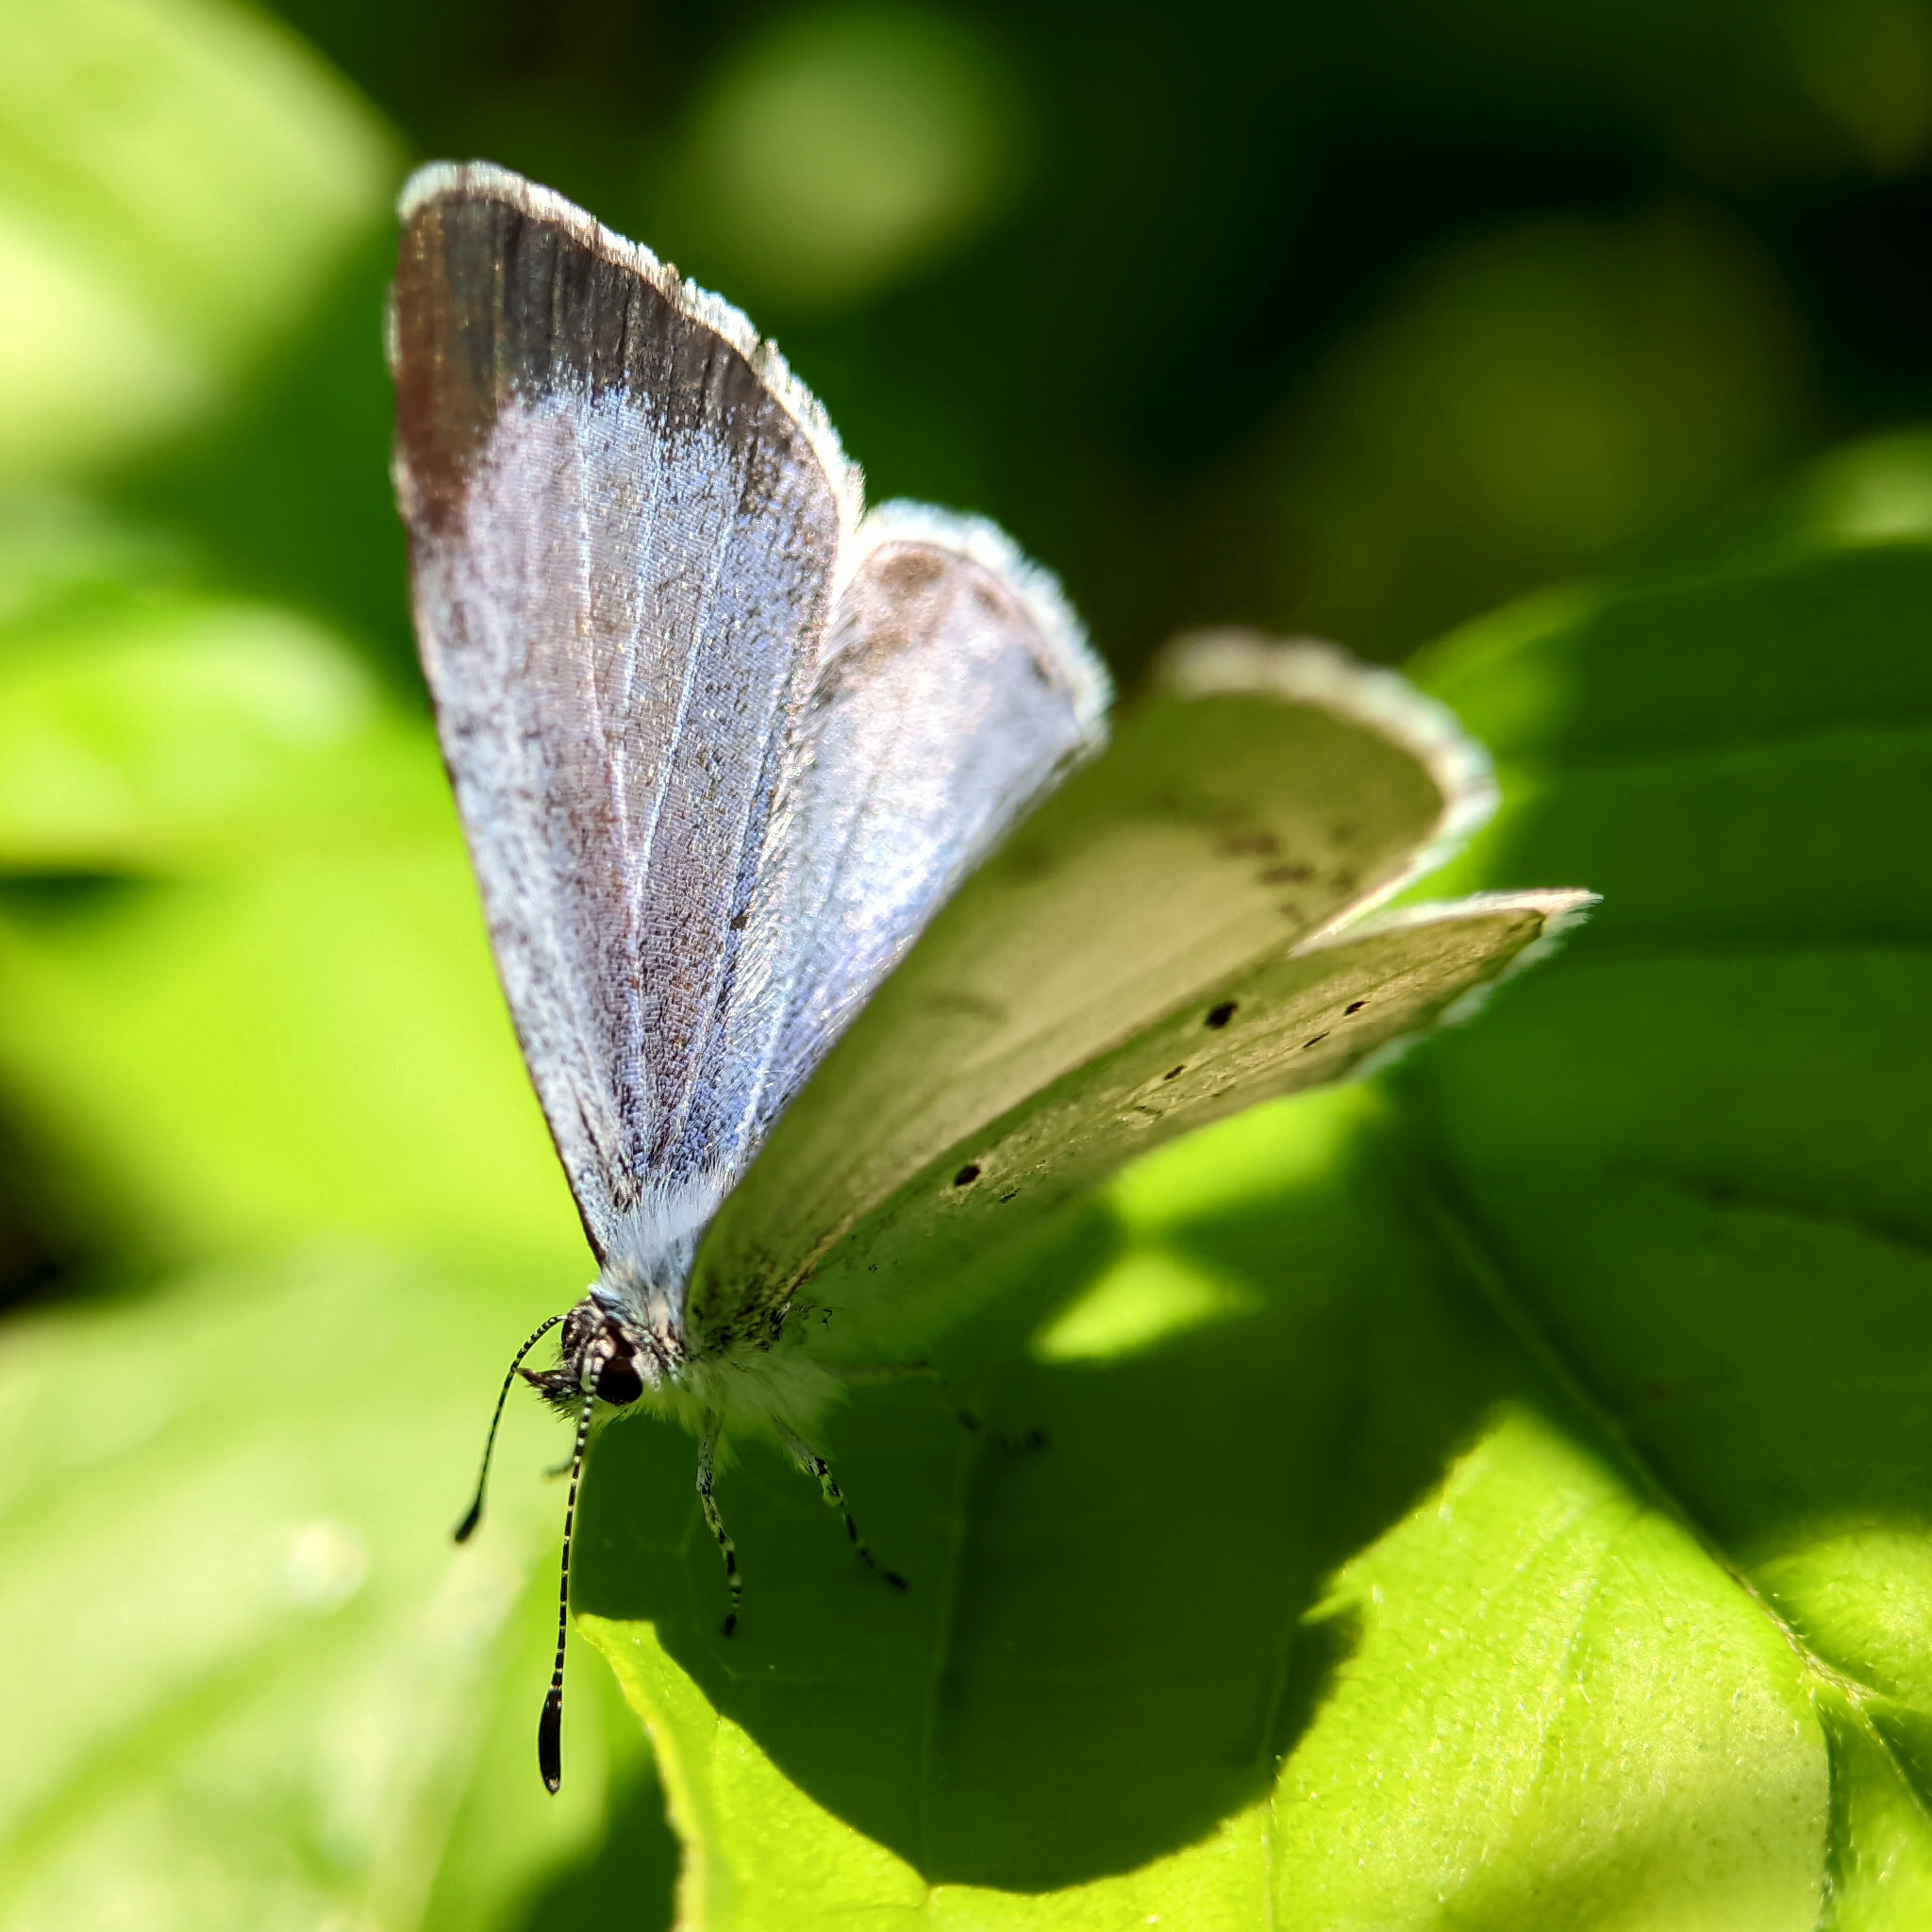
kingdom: Animalia
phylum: Arthropoda
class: Insecta
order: Lepidoptera
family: Lycaenidae
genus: Celastrina
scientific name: Celastrina argiolus
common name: Holly blue
